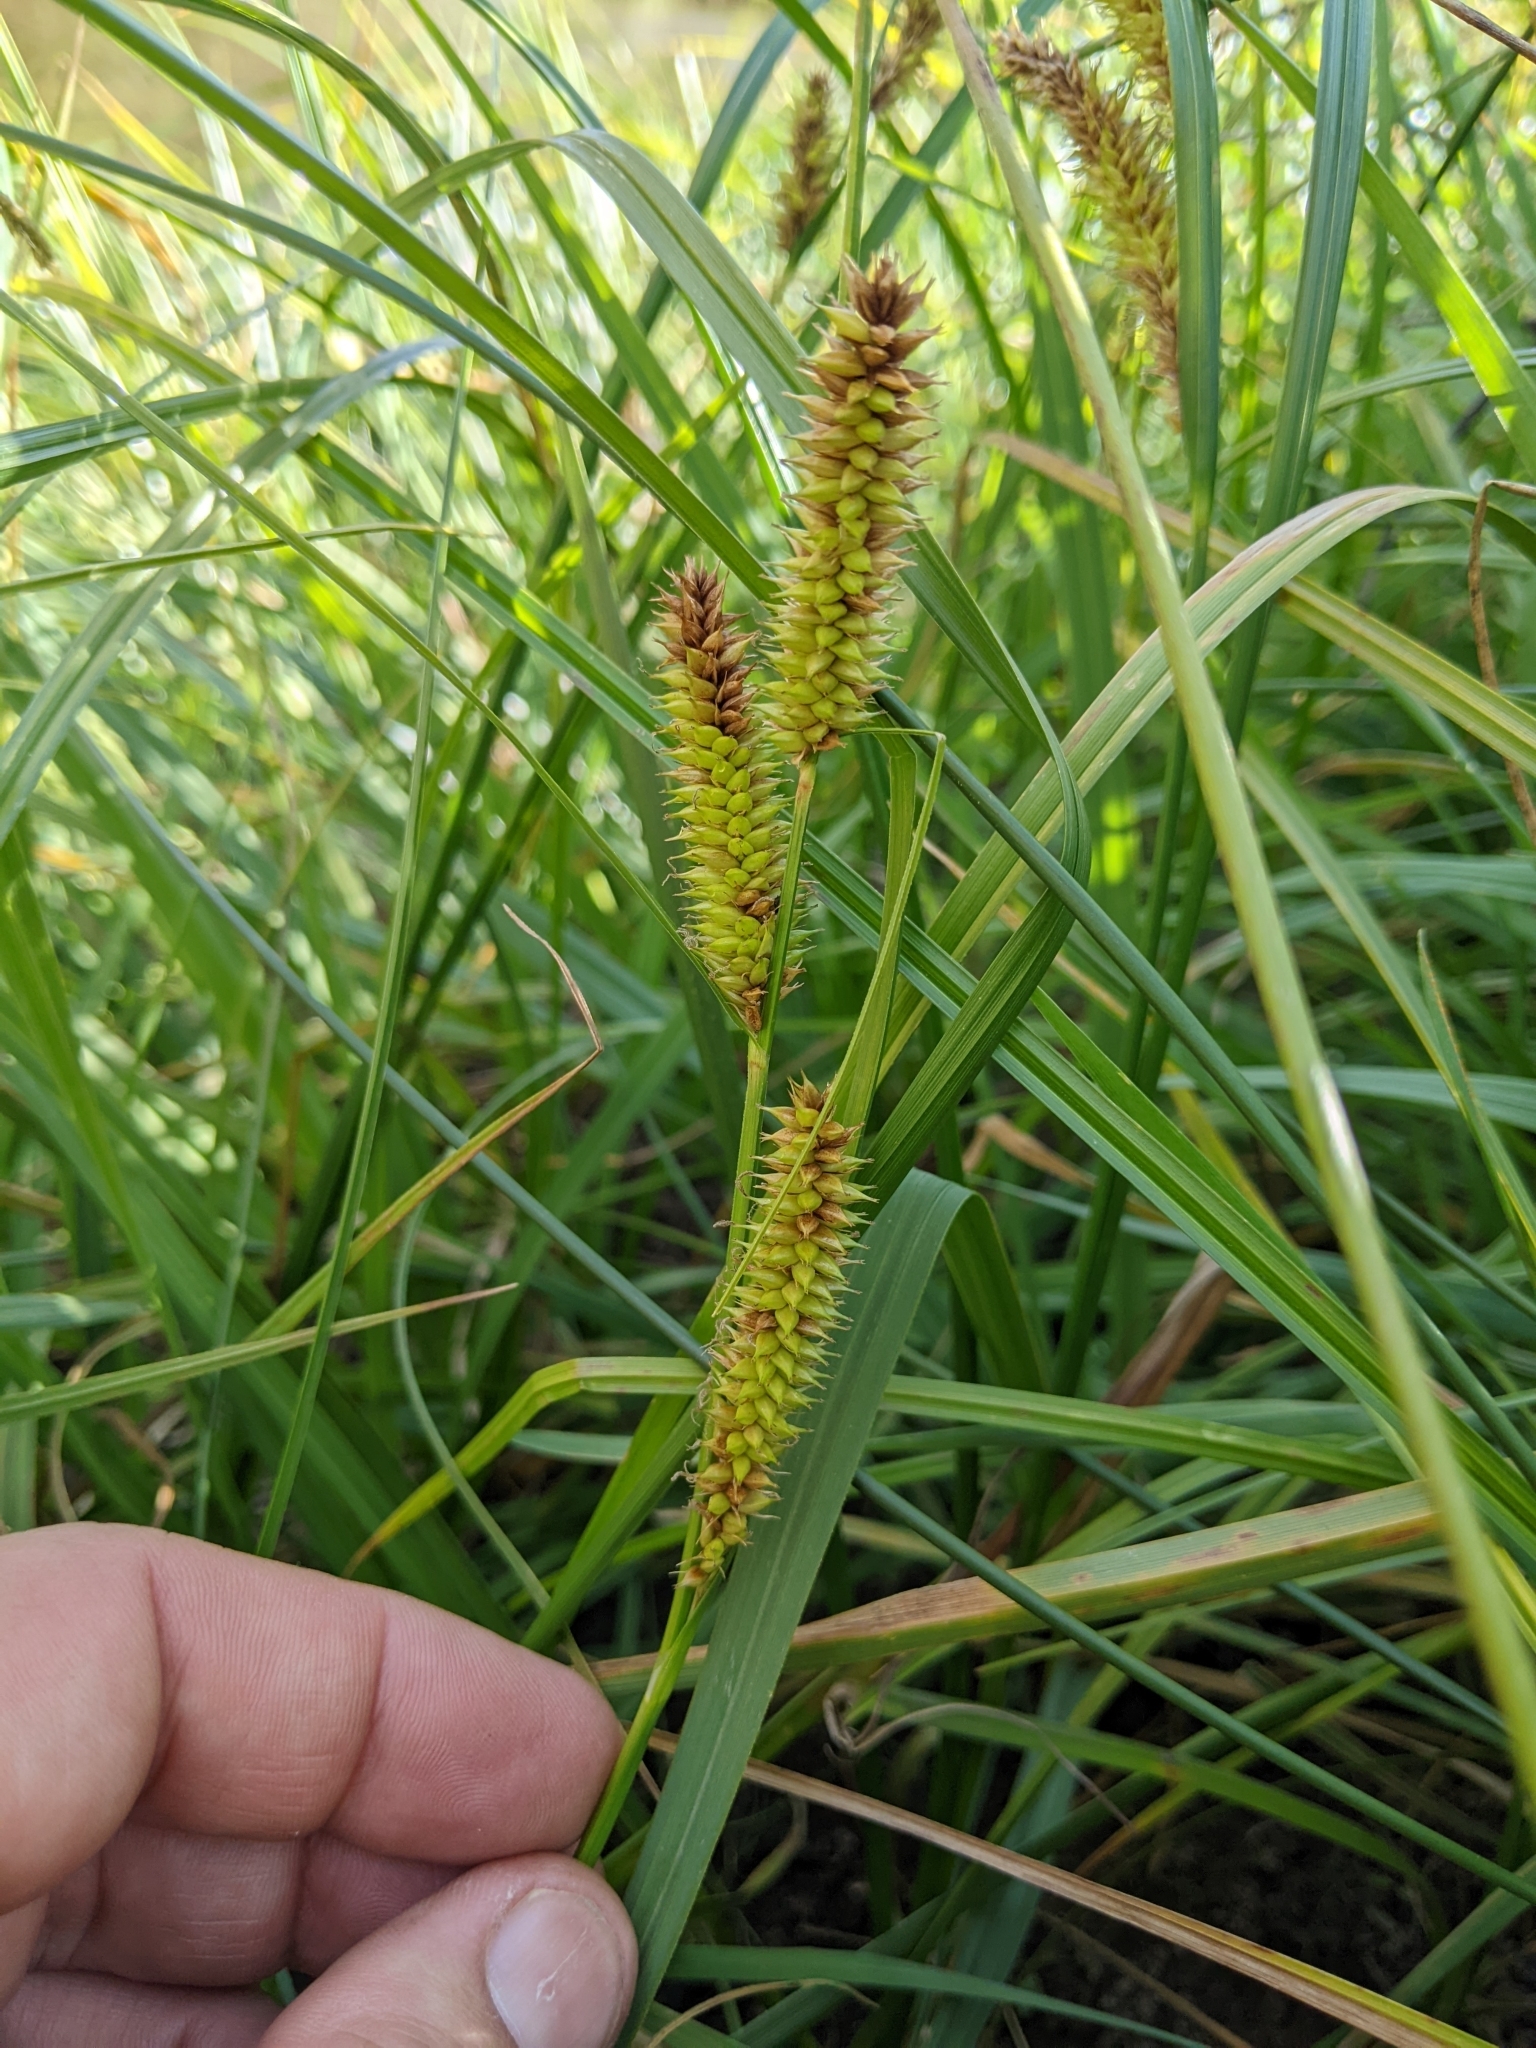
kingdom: Plantae
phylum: Tracheophyta
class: Liliopsida
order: Poales
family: Cyperaceae
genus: Carex
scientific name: Carex utriculata
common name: Beaked sedge
